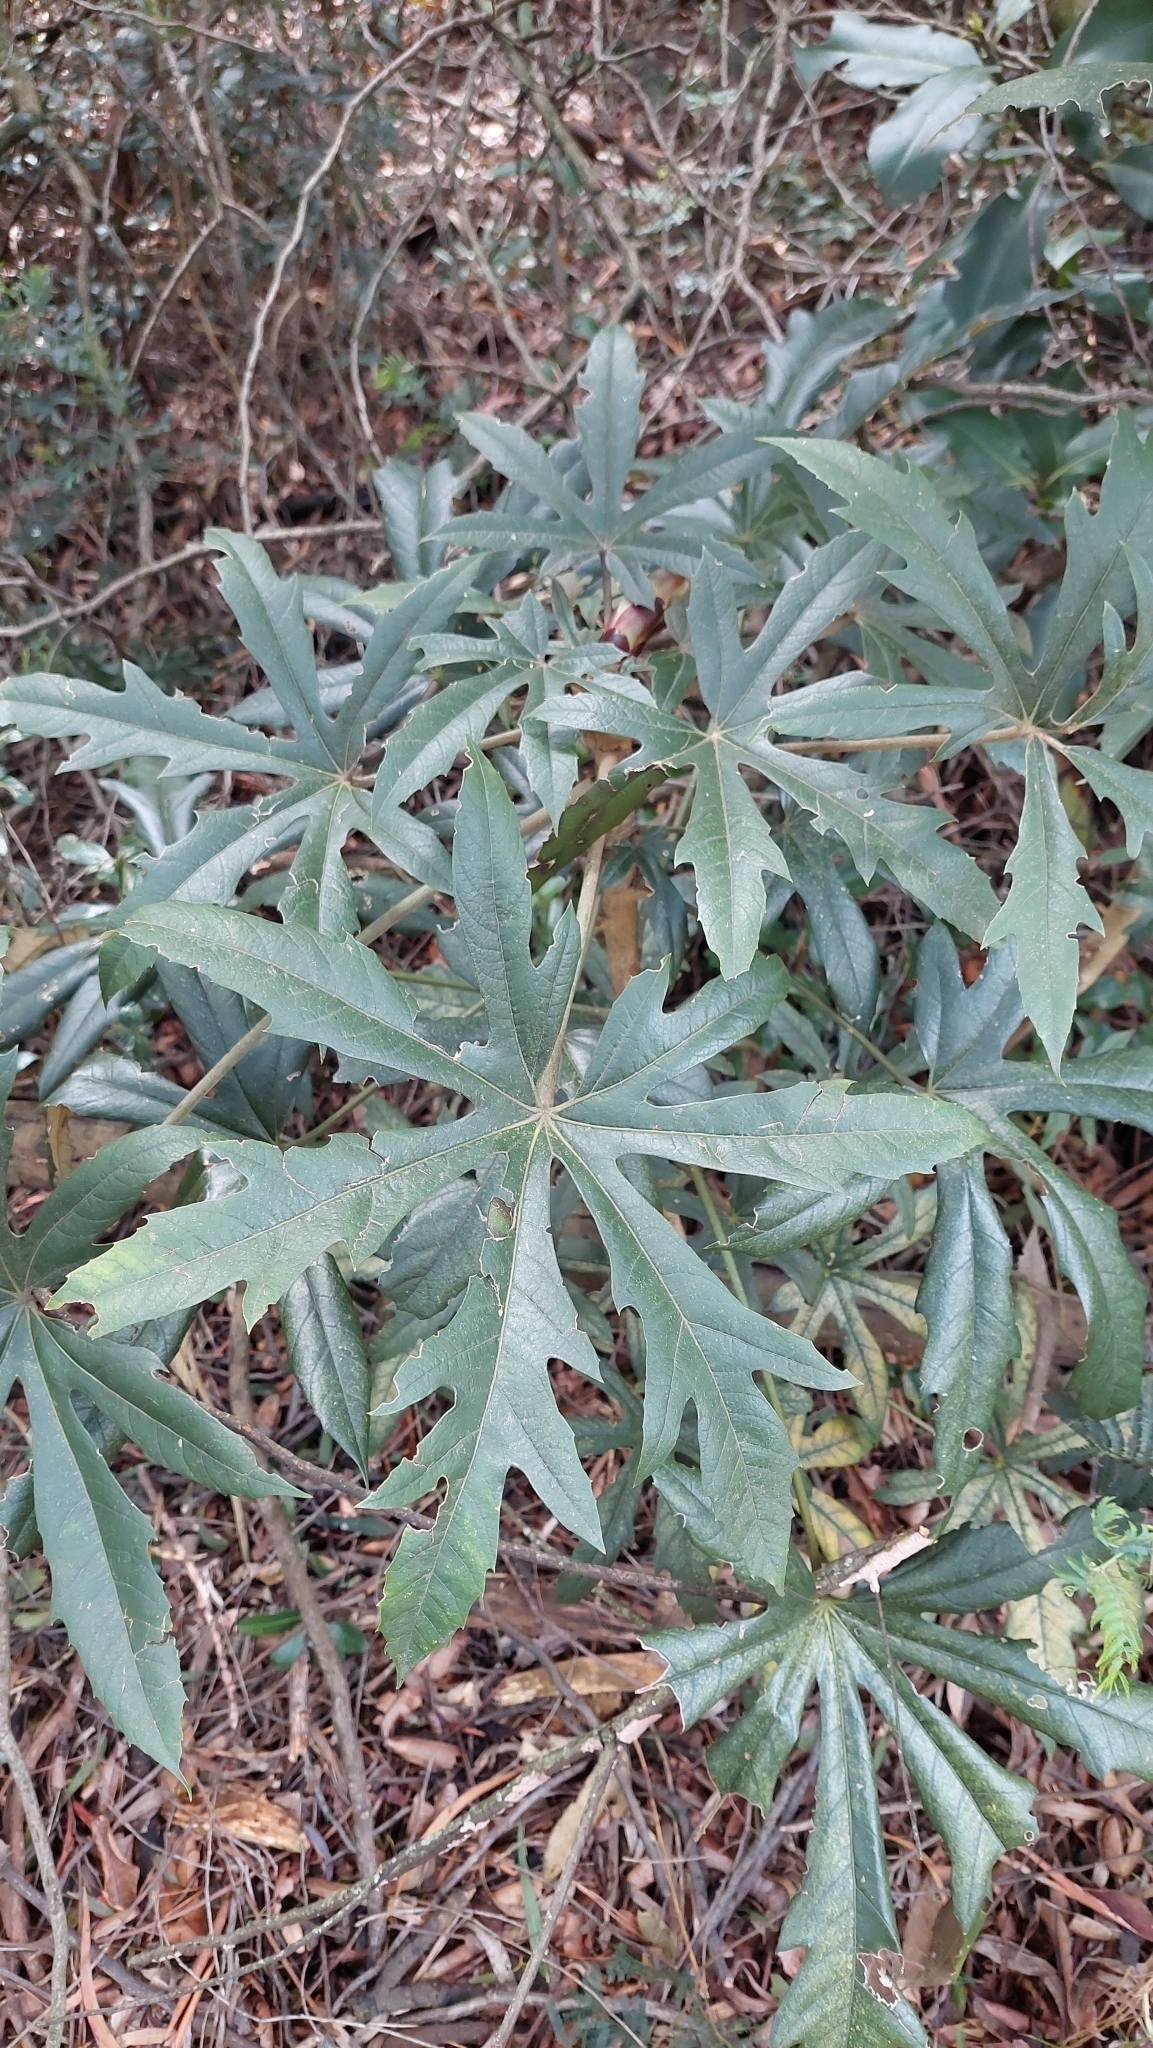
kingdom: Plantae
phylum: Tracheophyta
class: Magnoliopsida
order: Apiales
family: Araliaceae
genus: Oreopanax
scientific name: Oreopanax incisus
